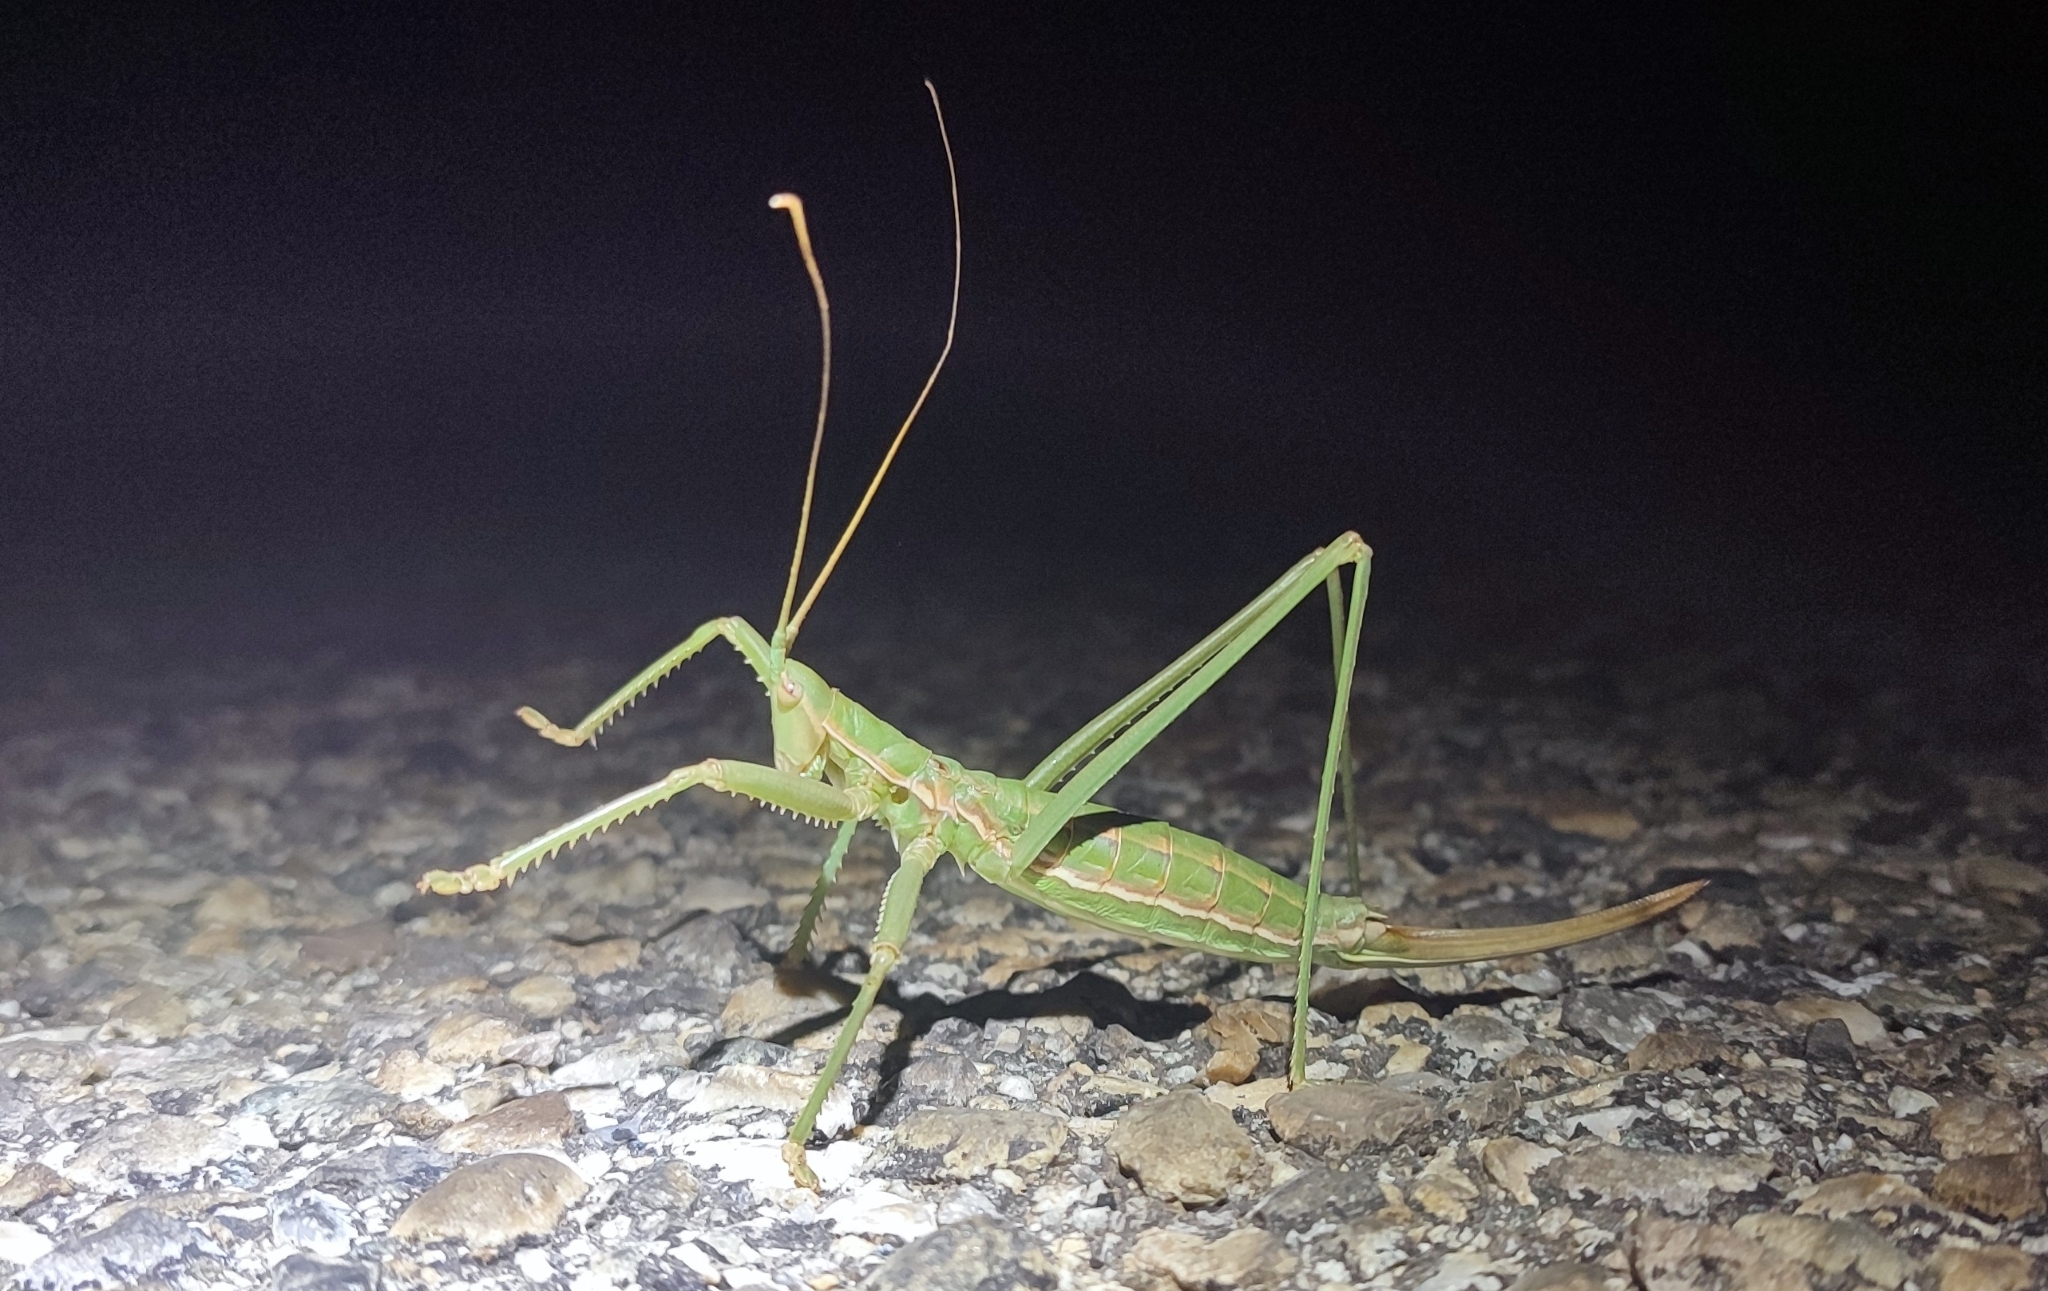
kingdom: Animalia
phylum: Arthropoda
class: Insecta
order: Orthoptera
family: Tettigoniidae
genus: Saga
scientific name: Saga pedo
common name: Common predatory bush-cricket
